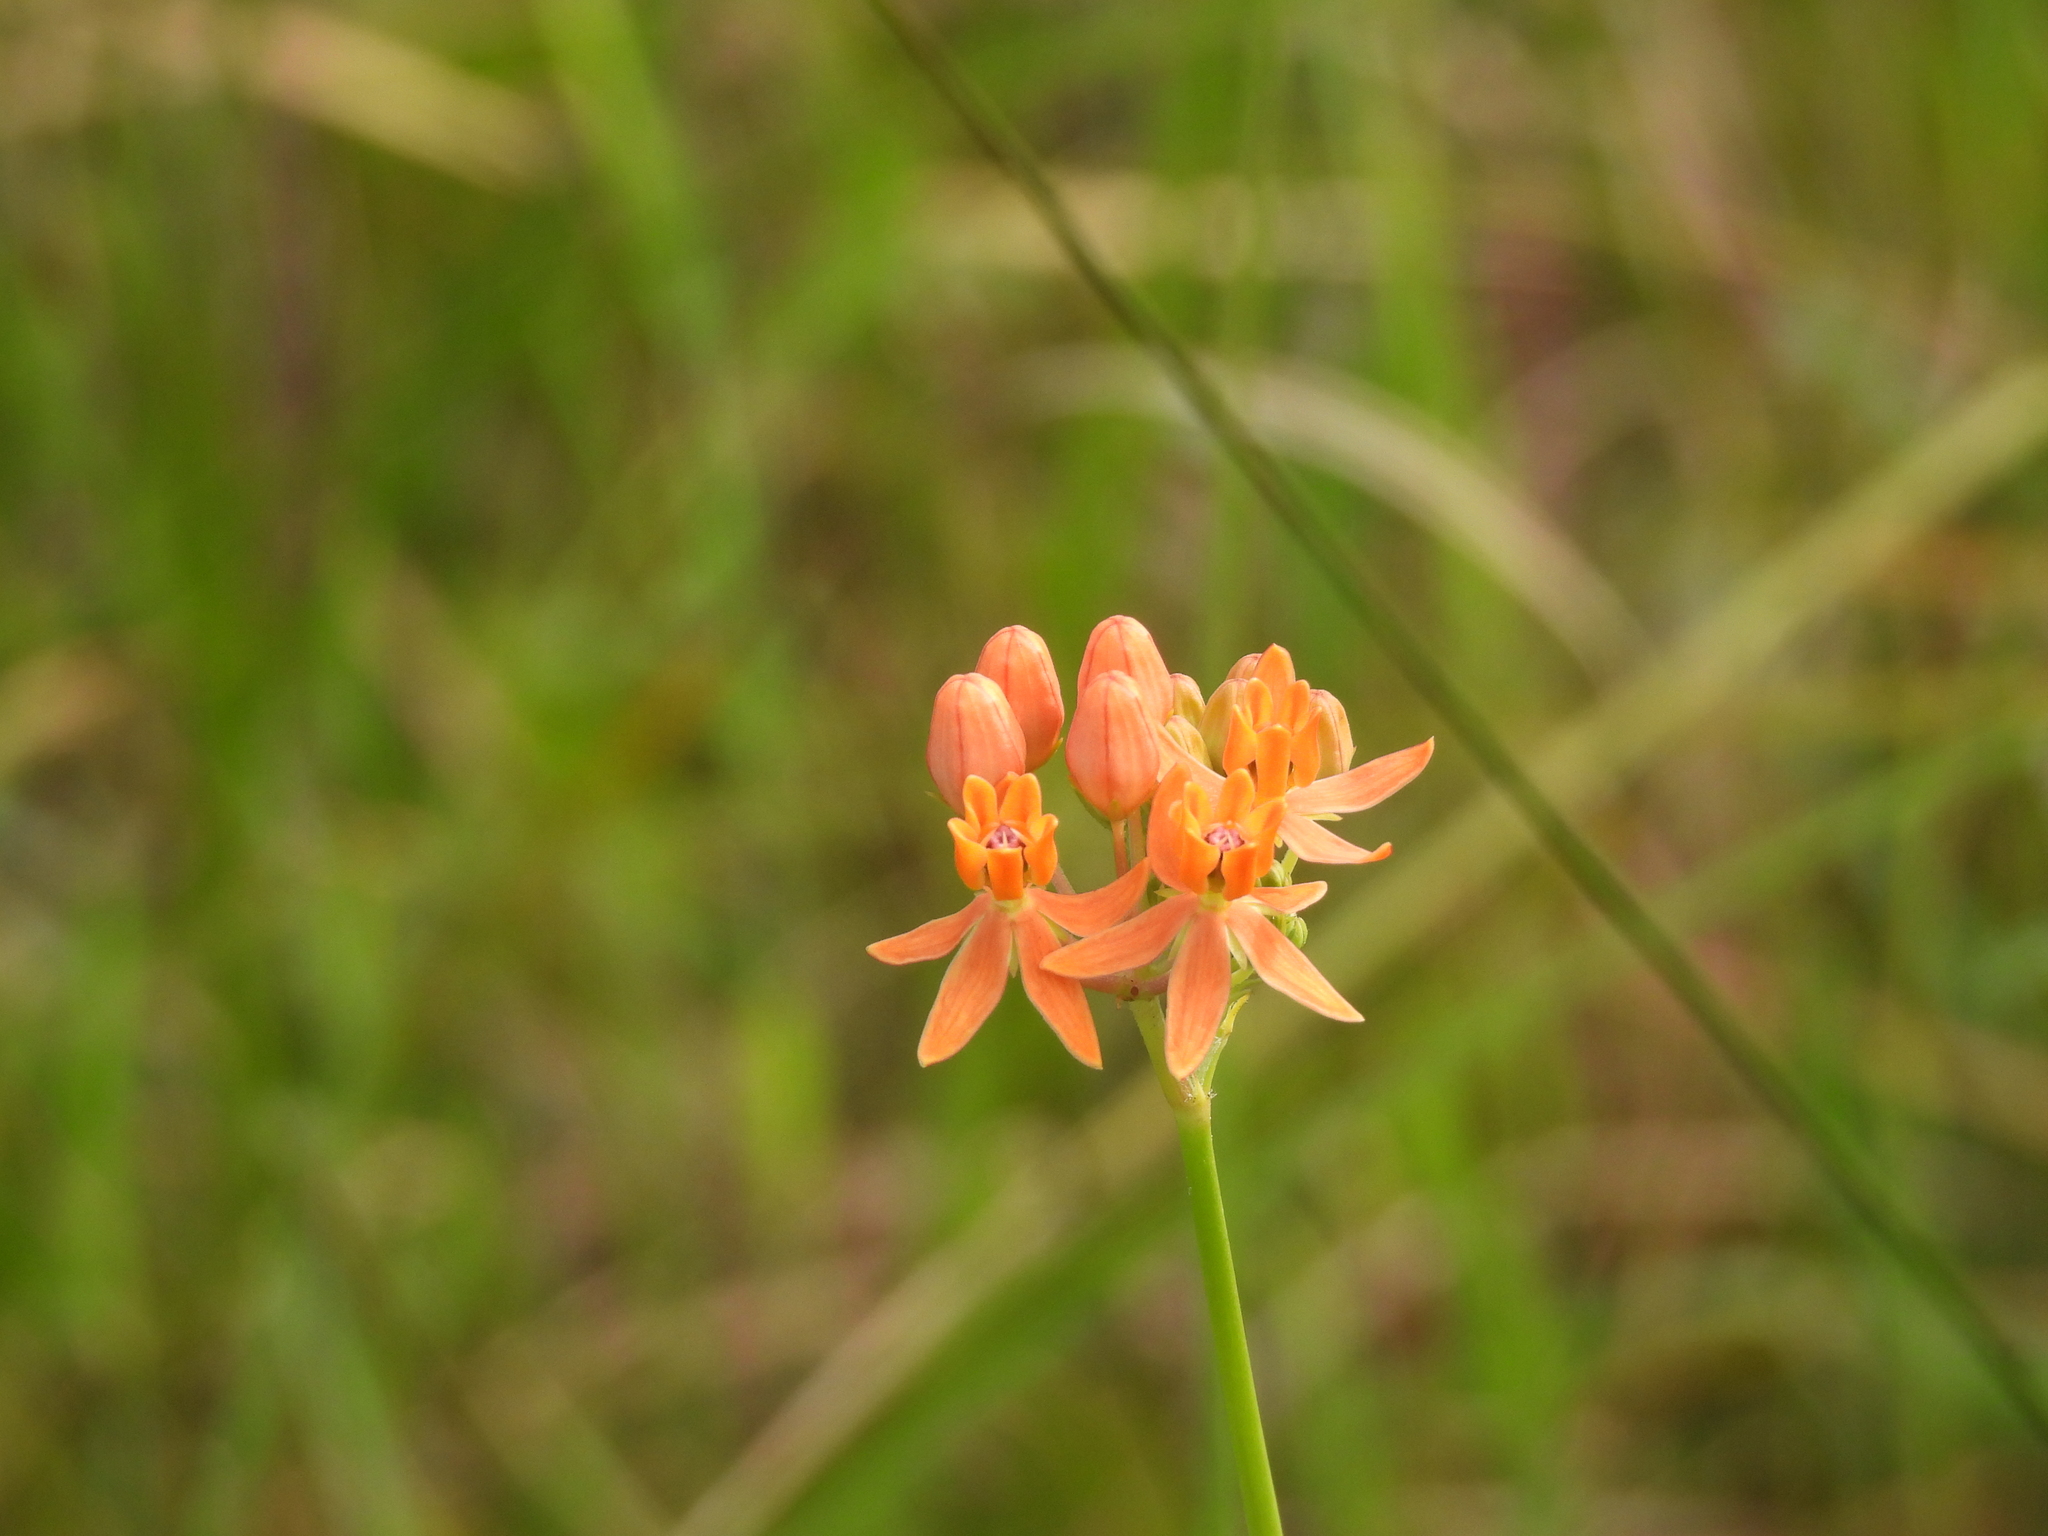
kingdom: Plantae
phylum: Tracheophyta
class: Magnoliopsida
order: Gentianales
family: Apocynaceae
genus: Asclepias
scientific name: Asclepias lanceolata
